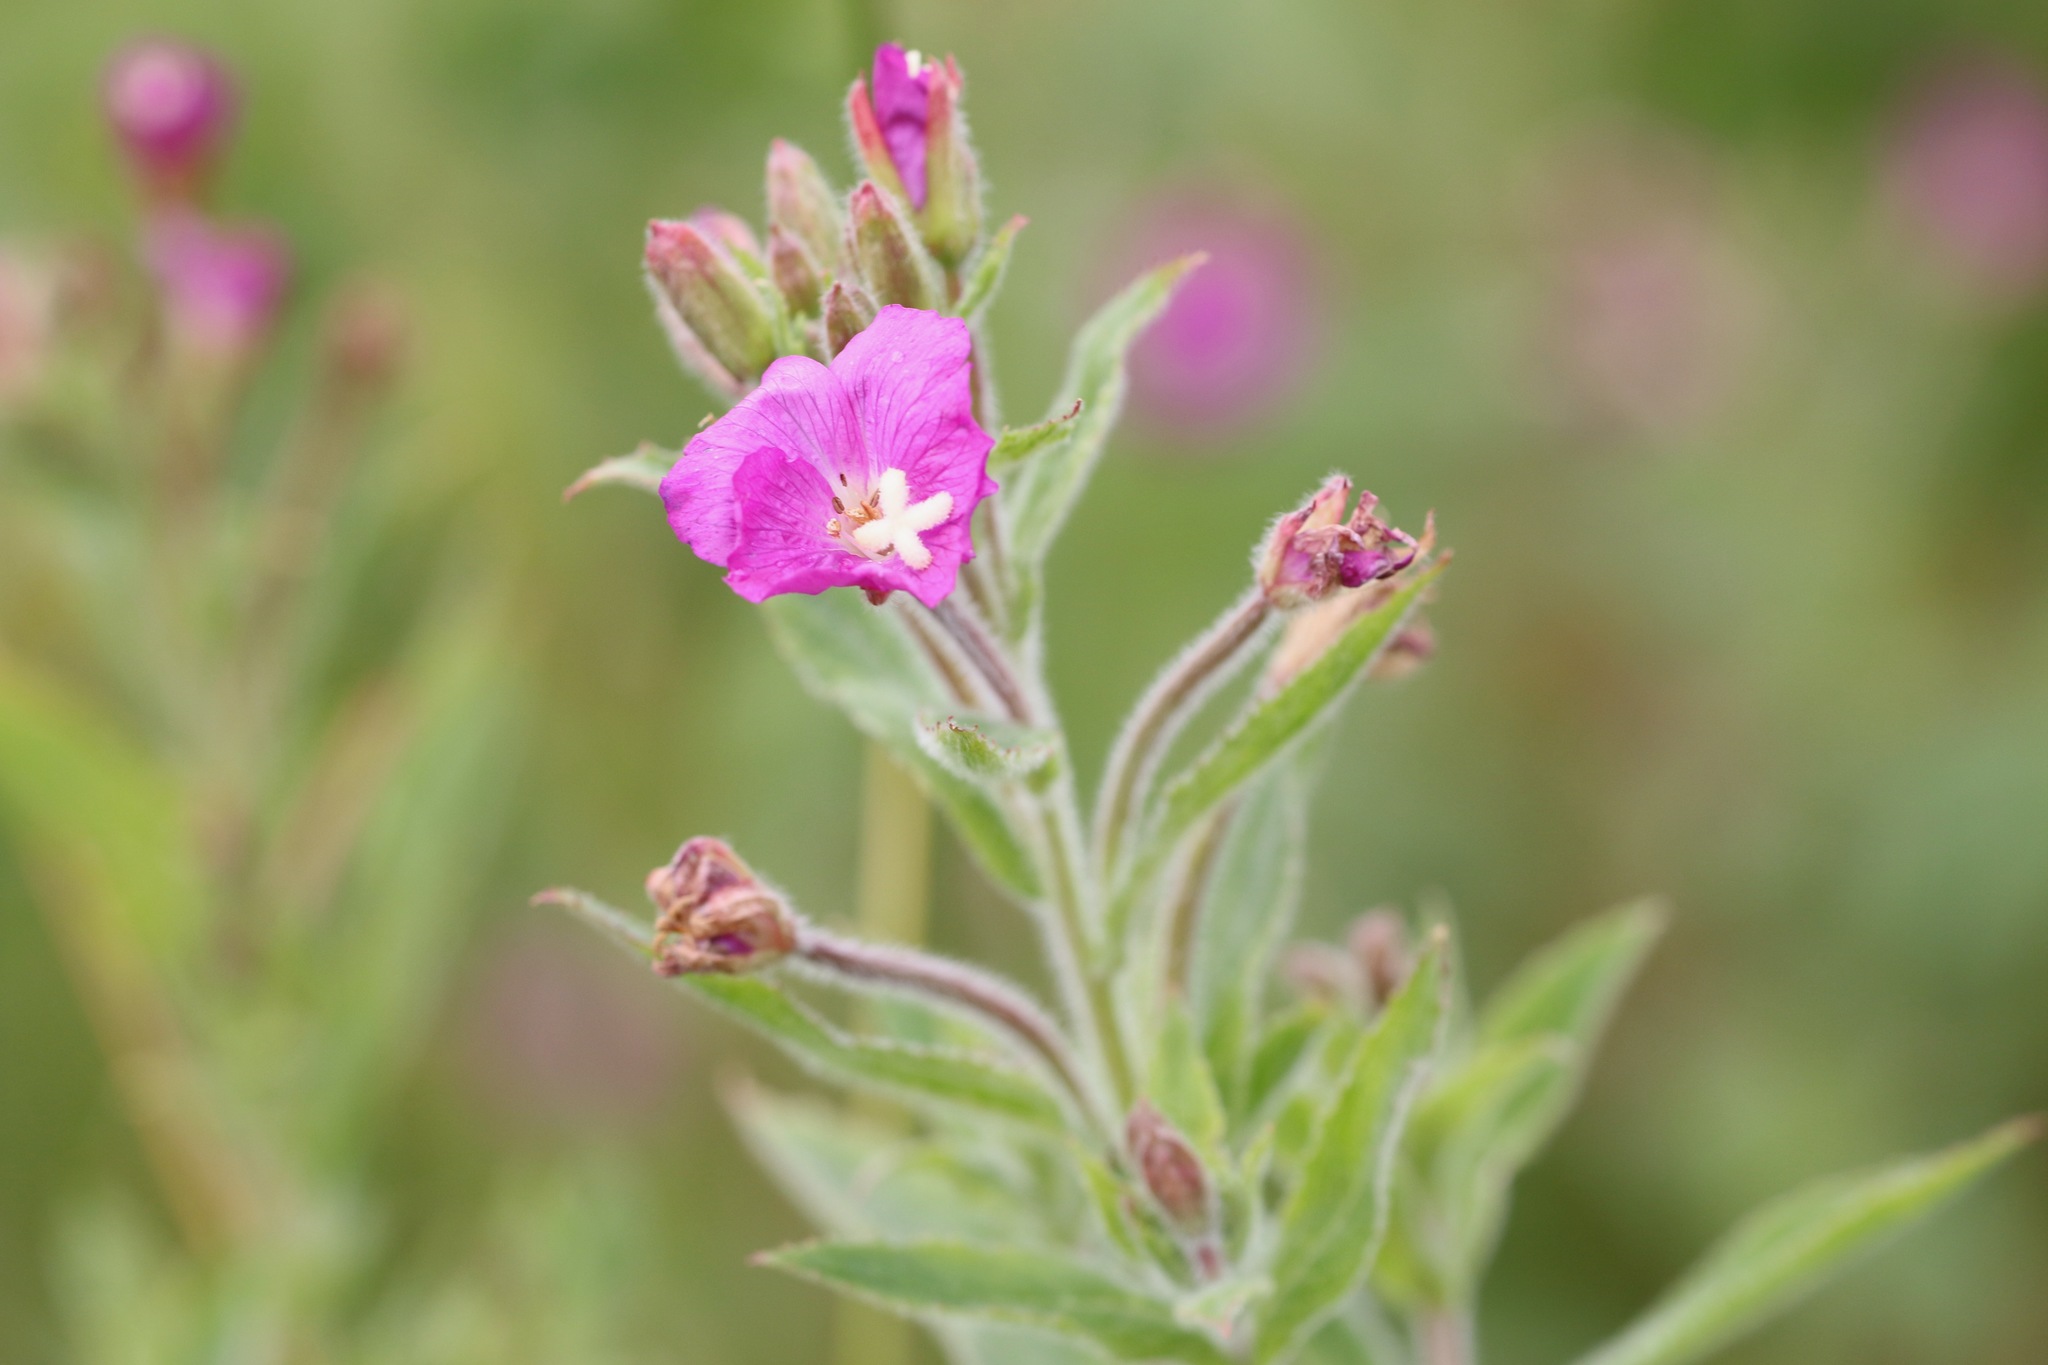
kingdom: Plantae
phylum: Tracheophyta
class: Magnoliopsida
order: Myrtales
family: Onagraceae
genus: Epilobium
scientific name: Epilobium hirsutum
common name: Great willowherb
